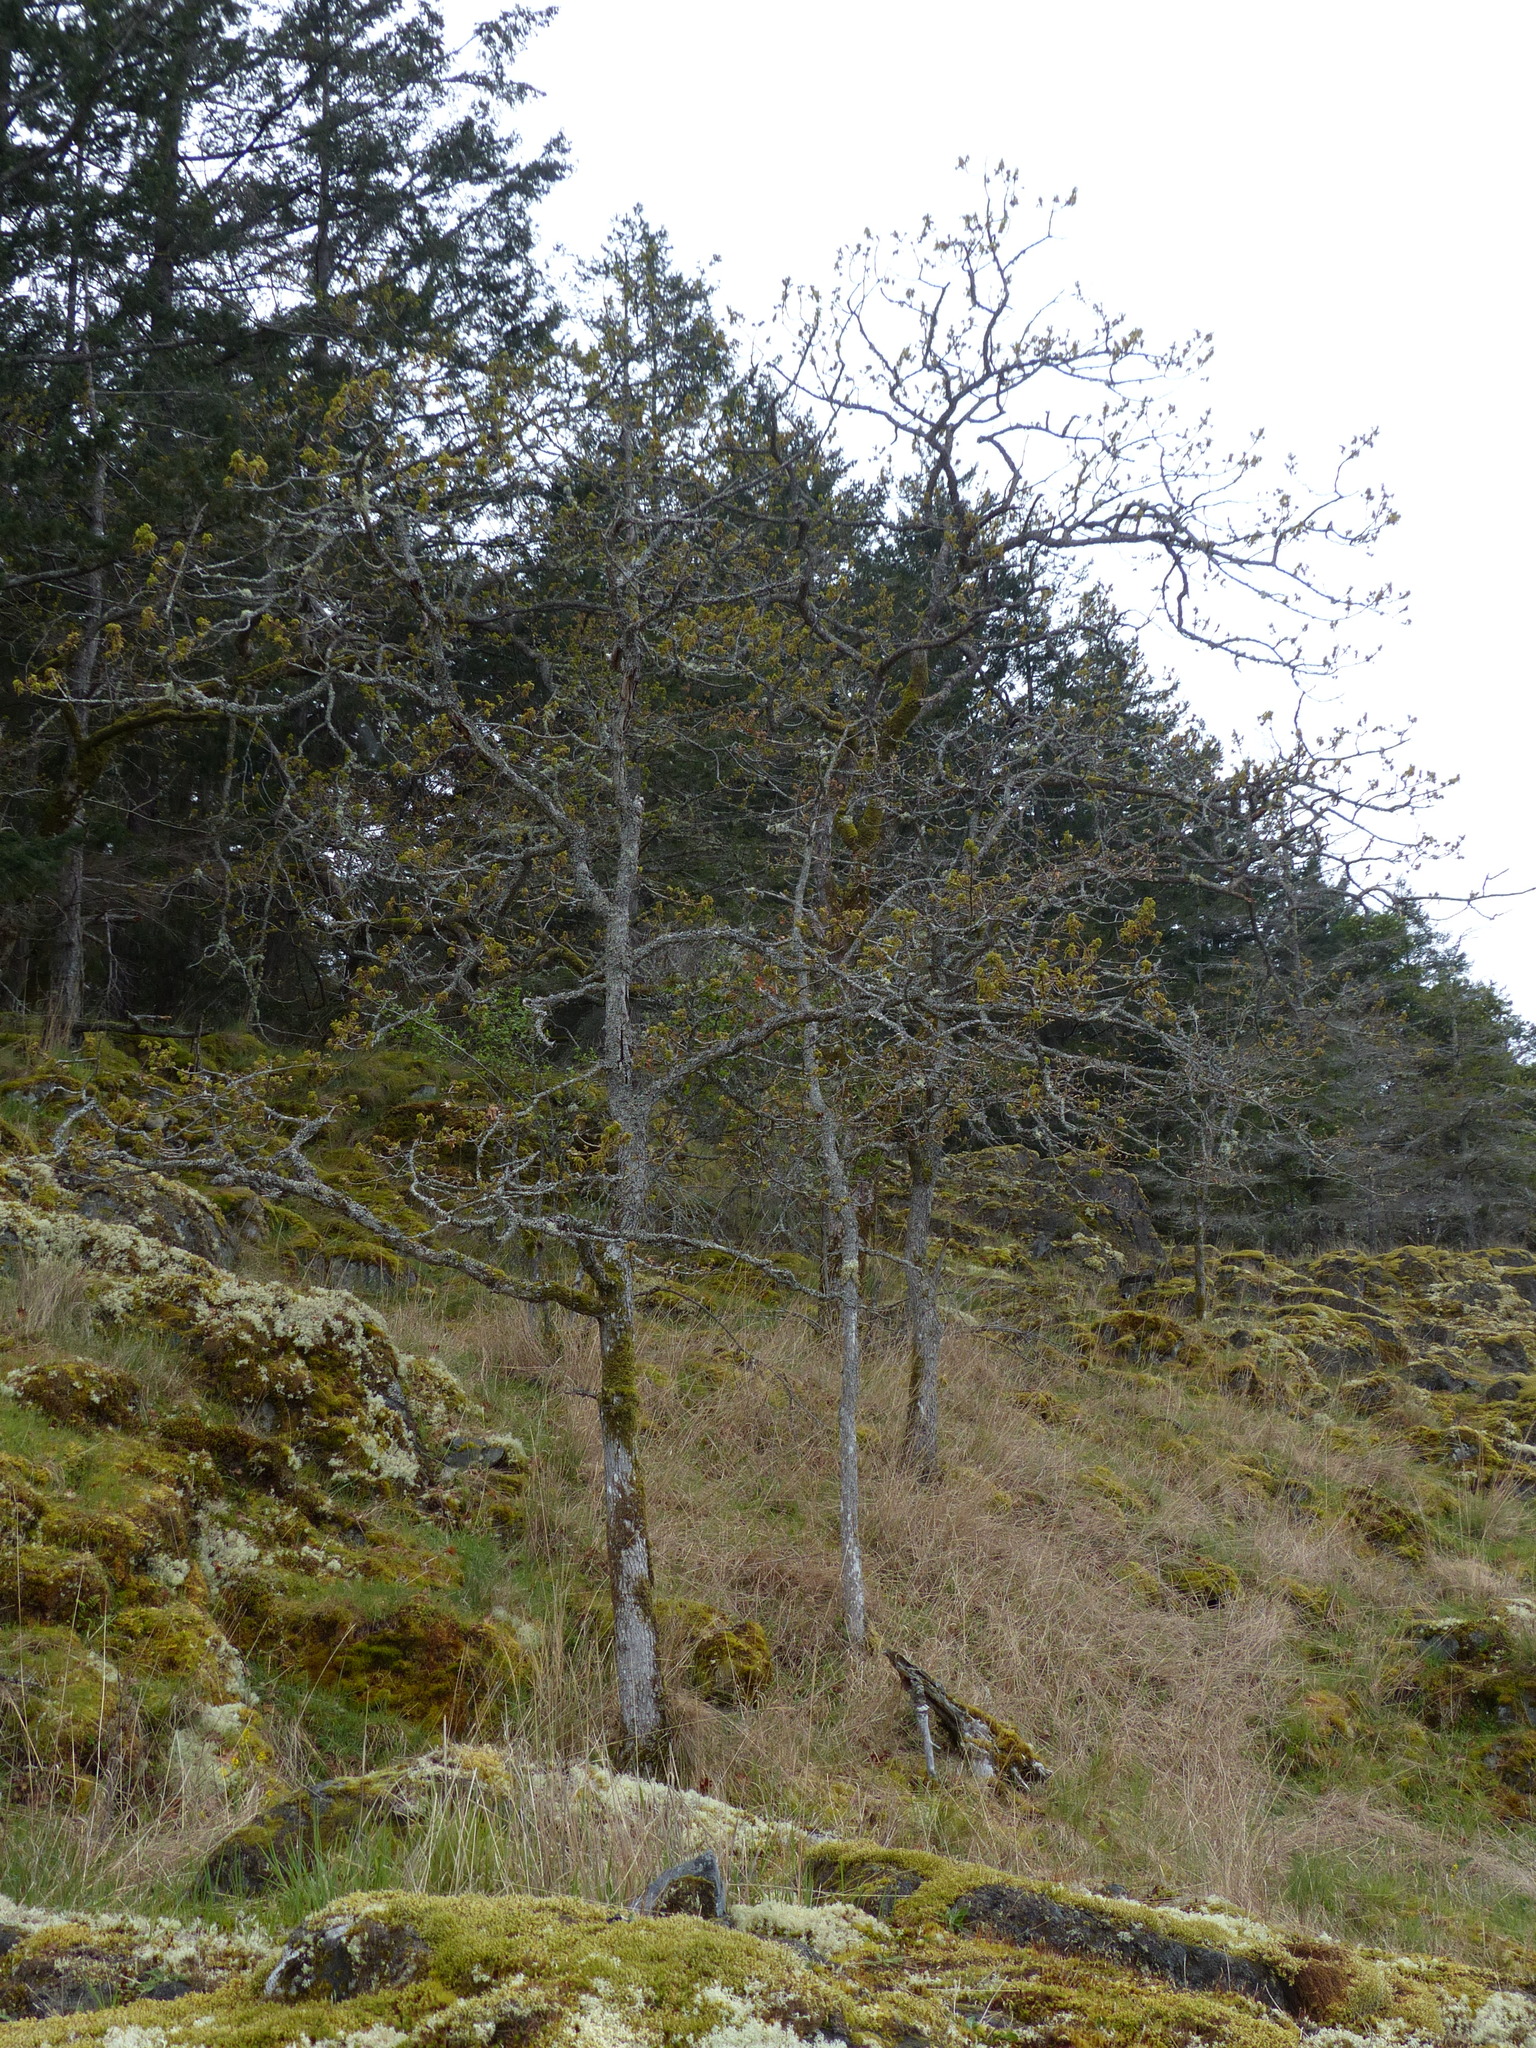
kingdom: Plantae
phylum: Tracheophyta
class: Magnoliopsida
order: Fagales
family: Fagaceae
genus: Quercus
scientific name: Quercus garryana
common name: Garry oak
